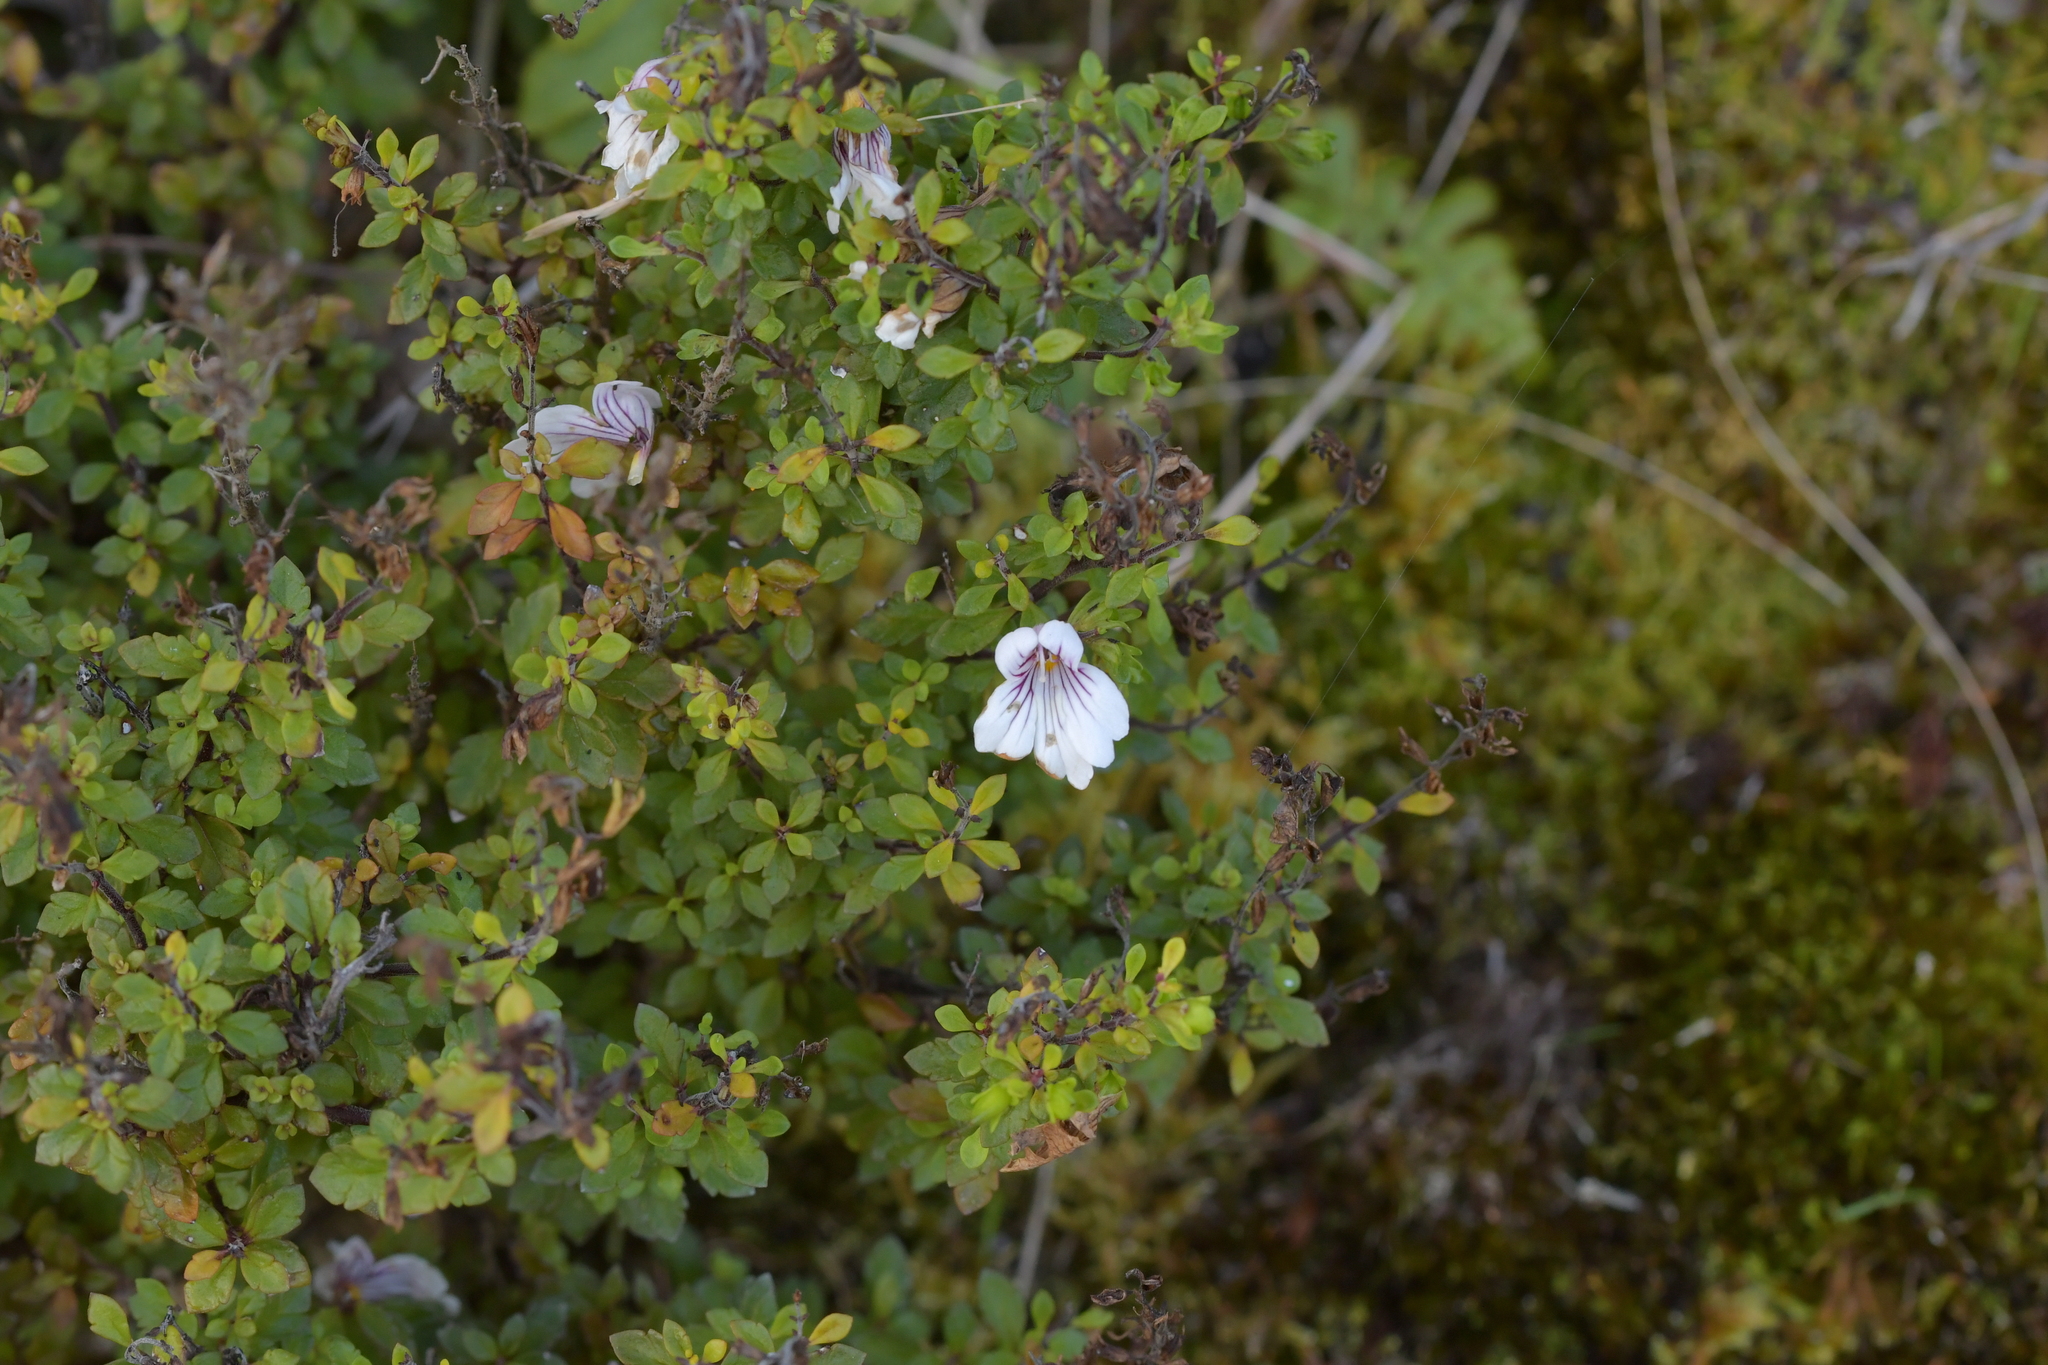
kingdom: Plantae
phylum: Tracheophyta
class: Magnoliopsida
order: Lamiales
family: Orobanchaceae
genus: Euphrasia
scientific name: Euphrasia cuneata
